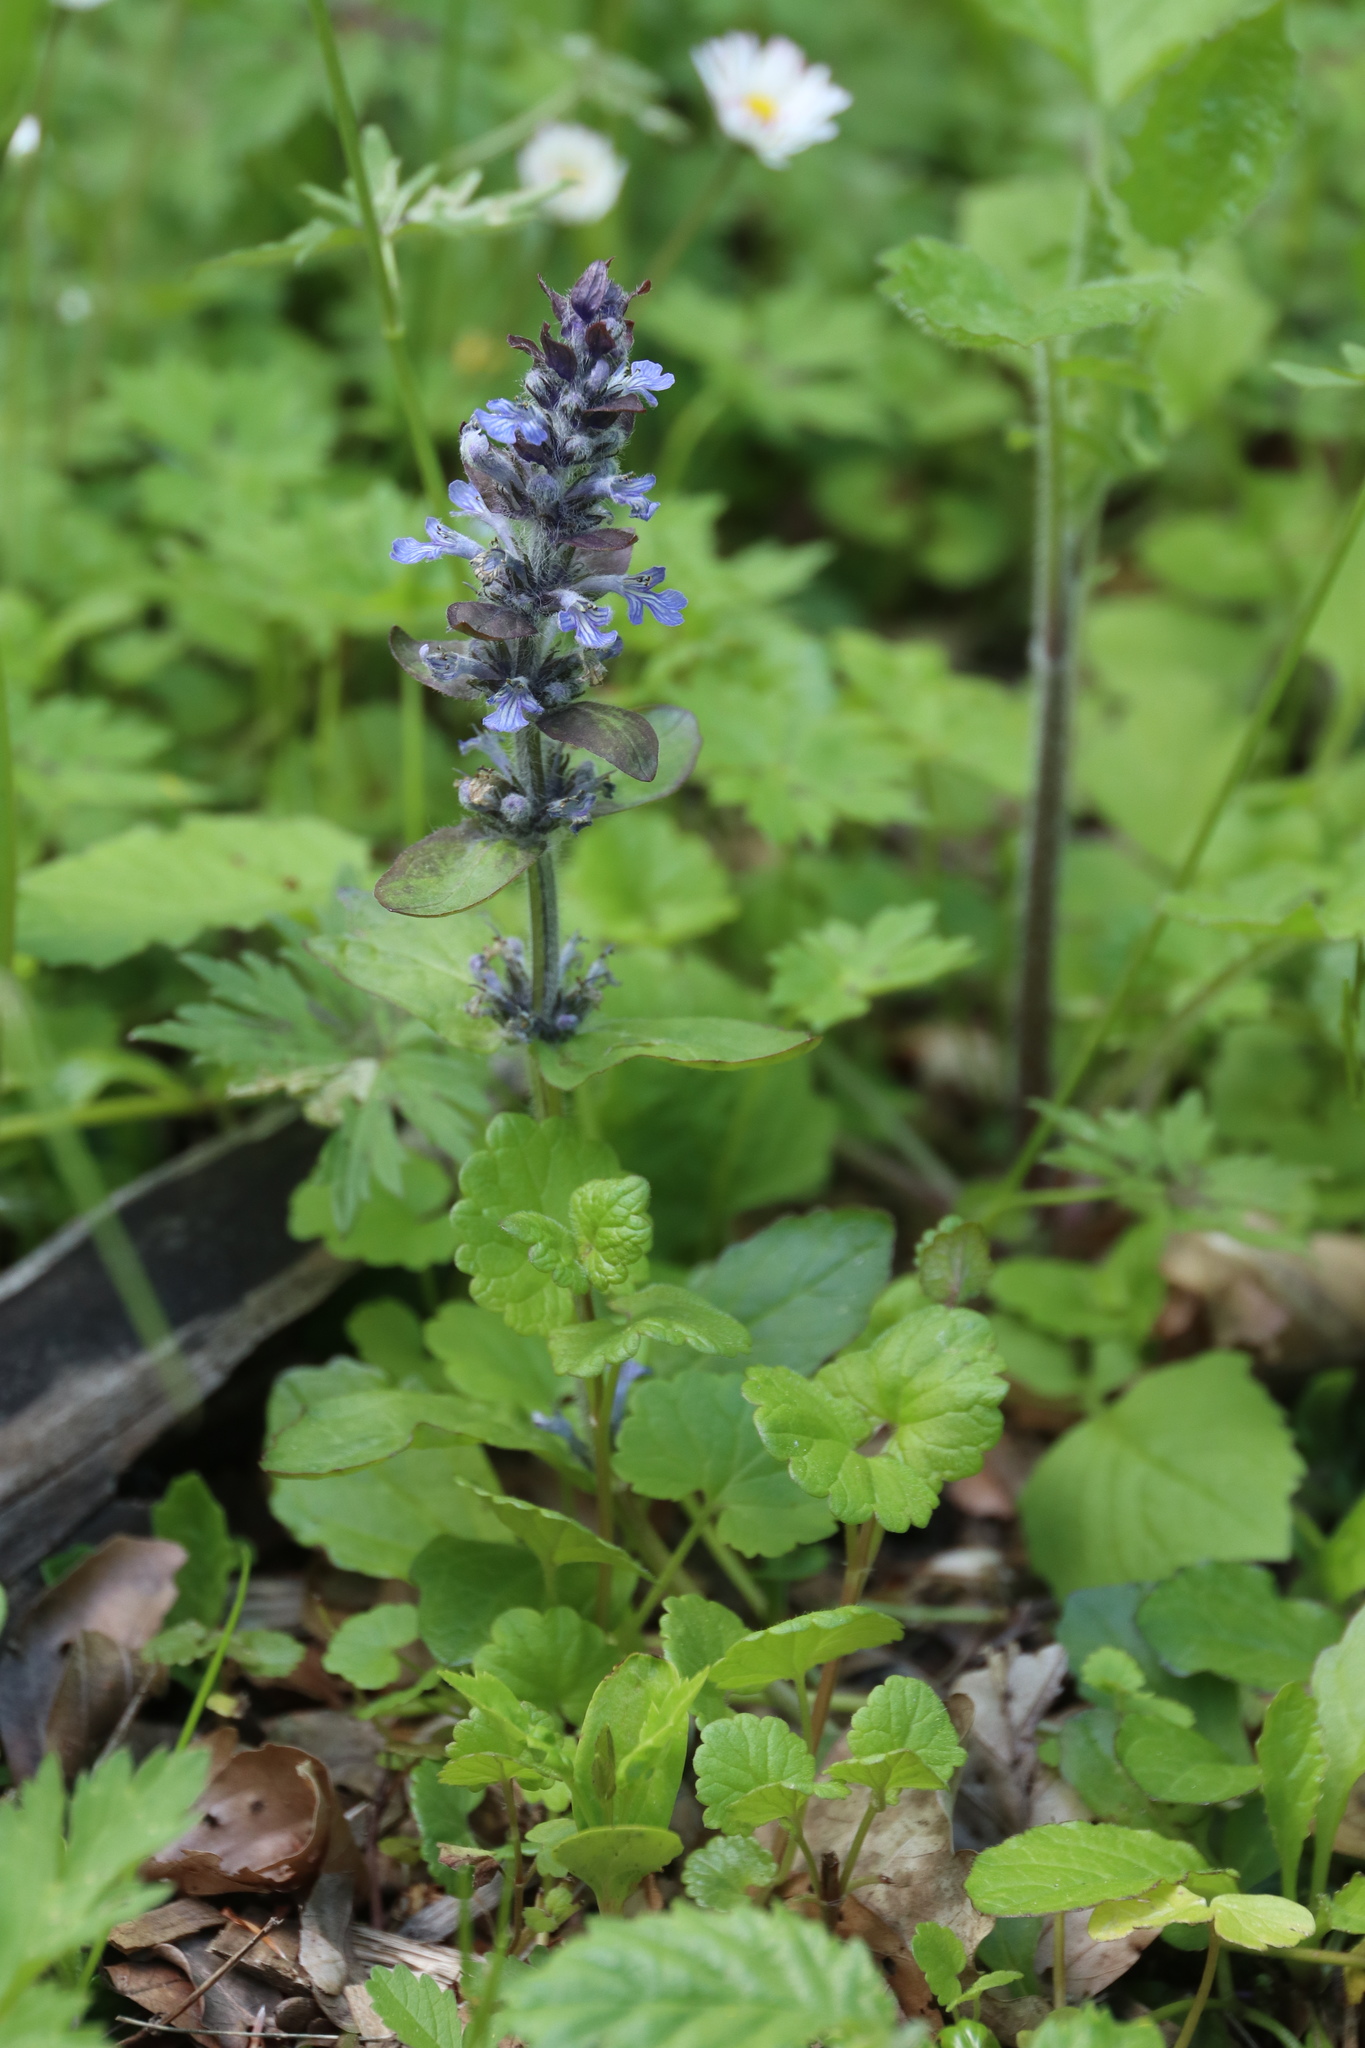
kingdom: Plantae
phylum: Tracheophyta
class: Magnoliopsida
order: Lamiales
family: Lamiaceae
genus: Ajuga
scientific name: Ajuga reptans
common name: Bugle
